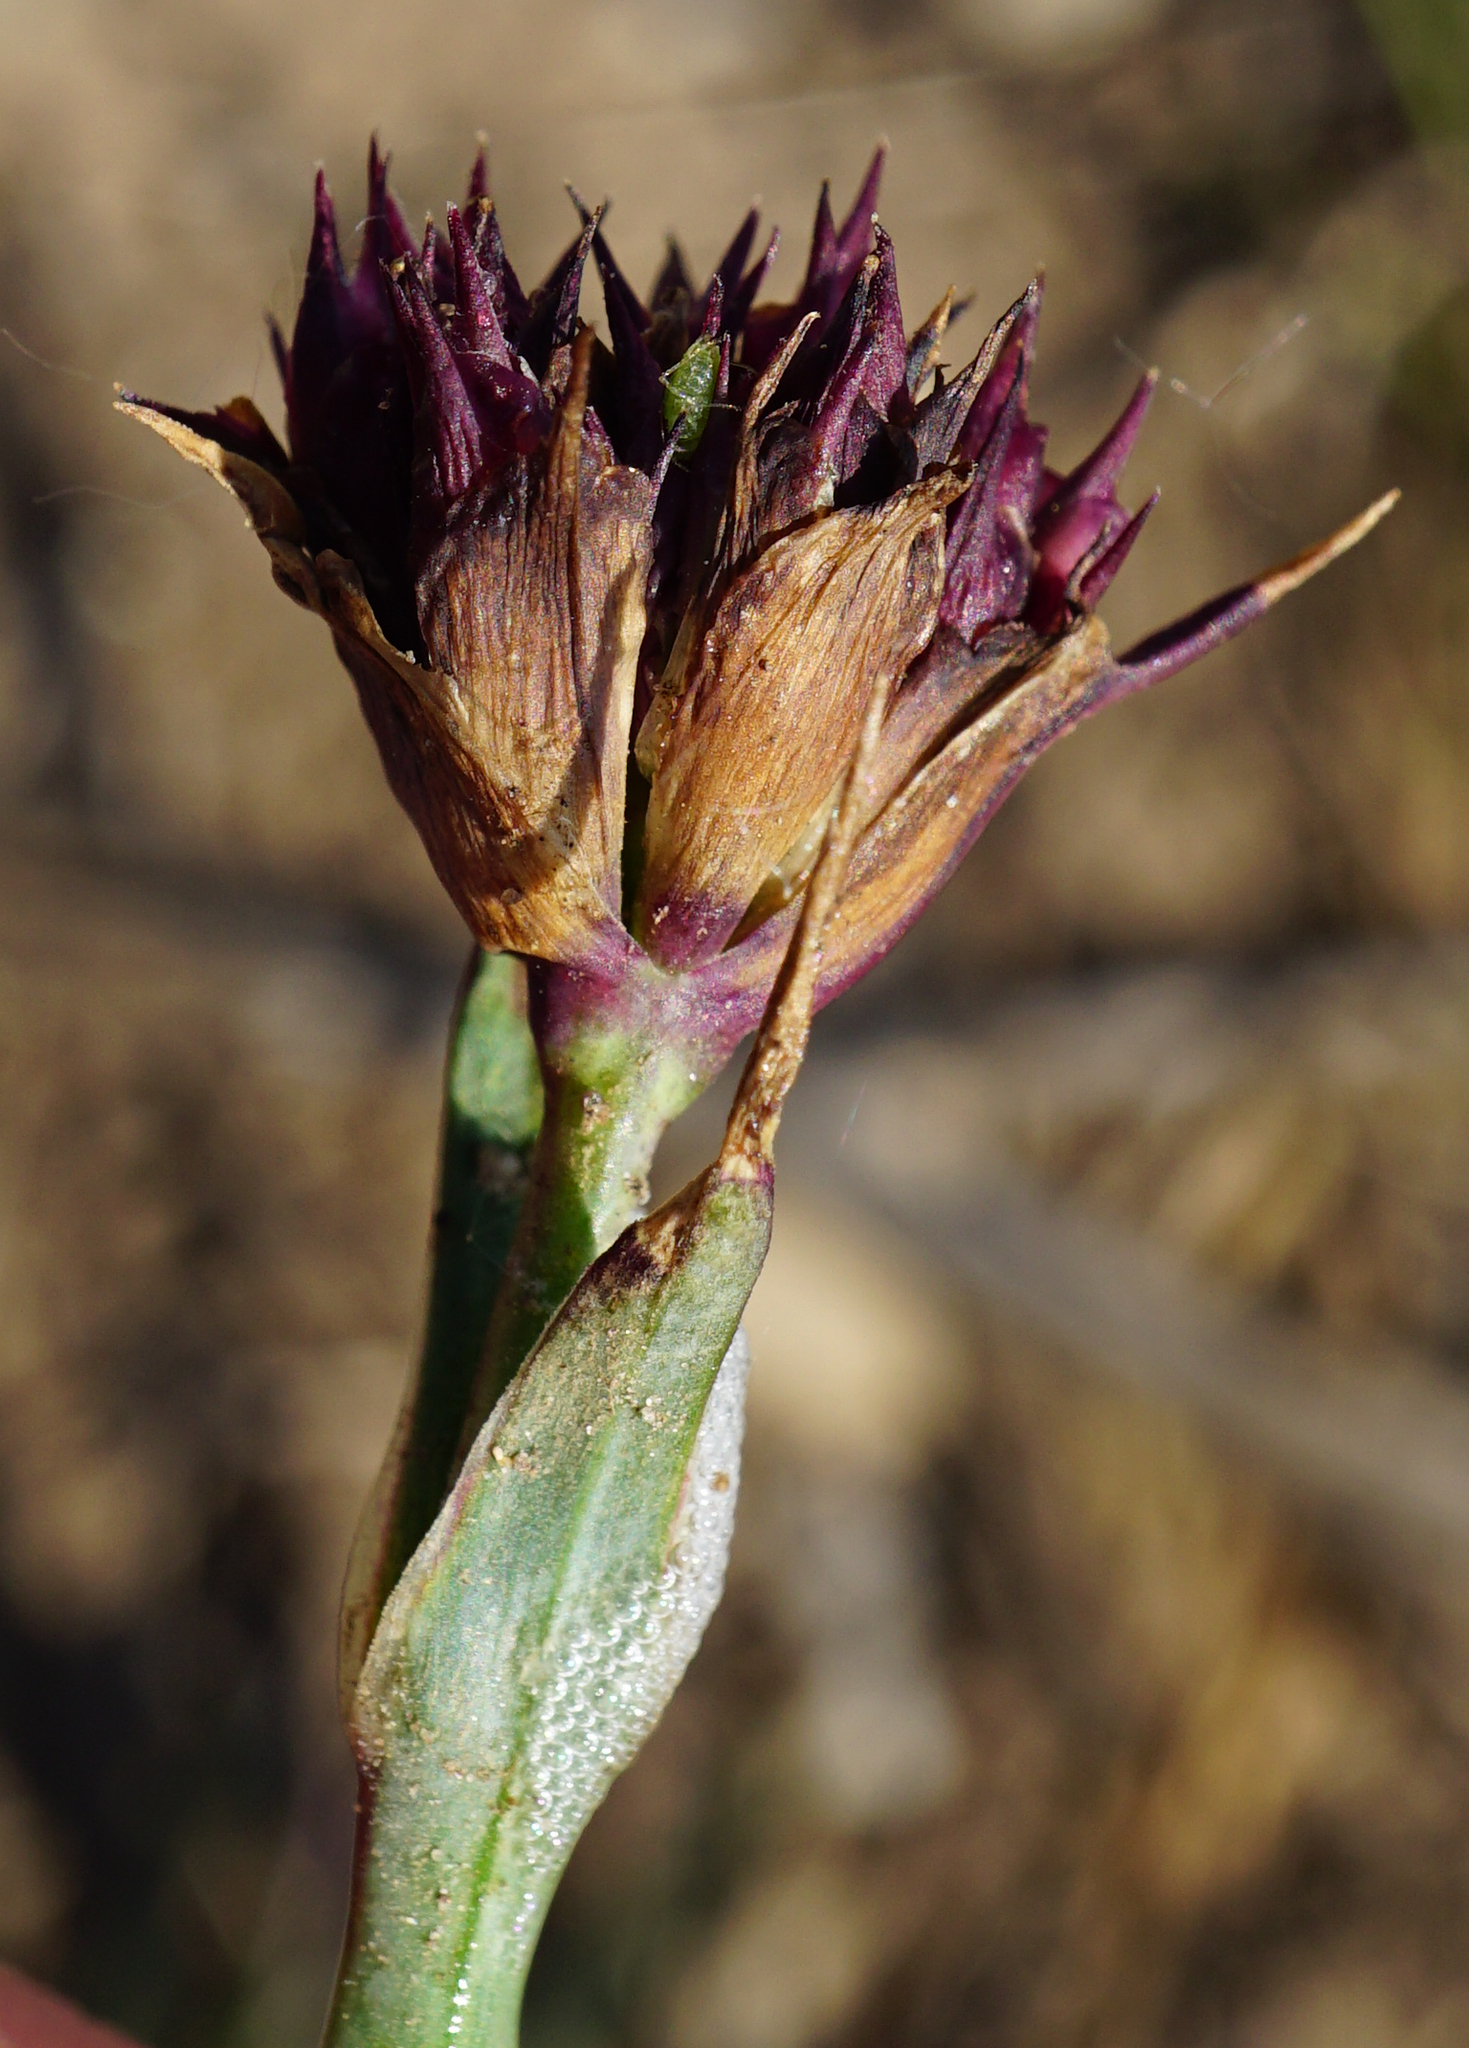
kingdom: Plantae
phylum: Tracheophyta
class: Magnoliopsida
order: Caryophyllales
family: Caryophyllaceae
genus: Dianthus
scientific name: Dianthus carthusianorum
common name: Carthusian pink
